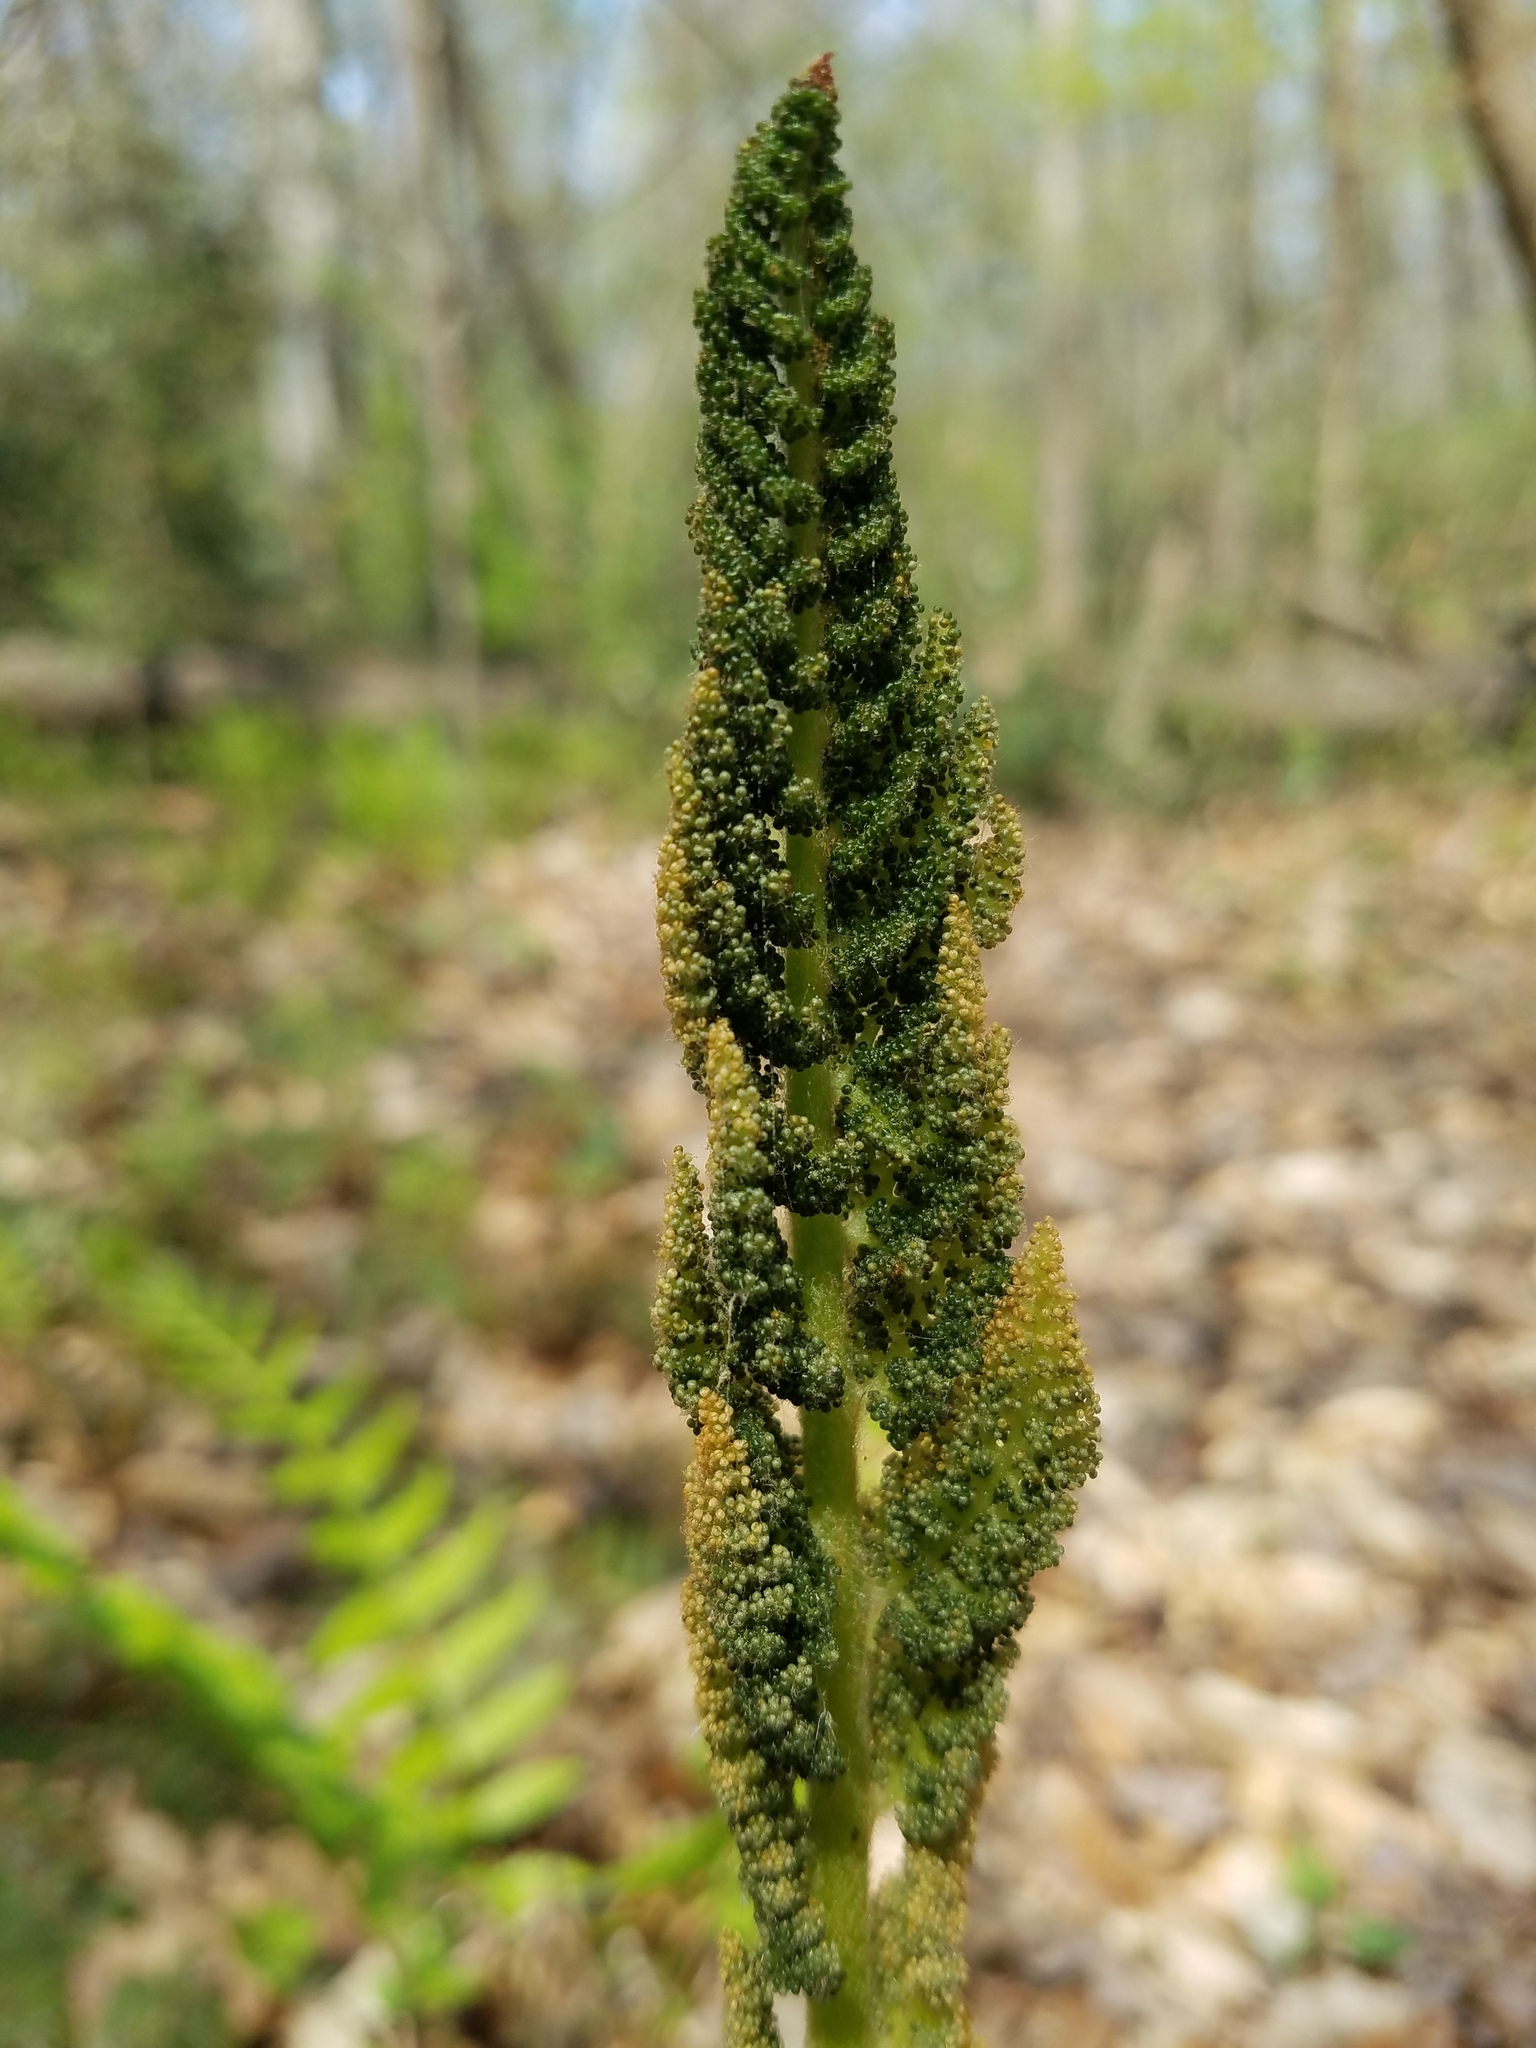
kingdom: Plantae
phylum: Tracheophyta
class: Polypodiopsida
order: Osmundales
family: Osmundaceae
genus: Osmundastrum
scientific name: Osmundastrum cinnamomeum
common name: Cinnamon fern
